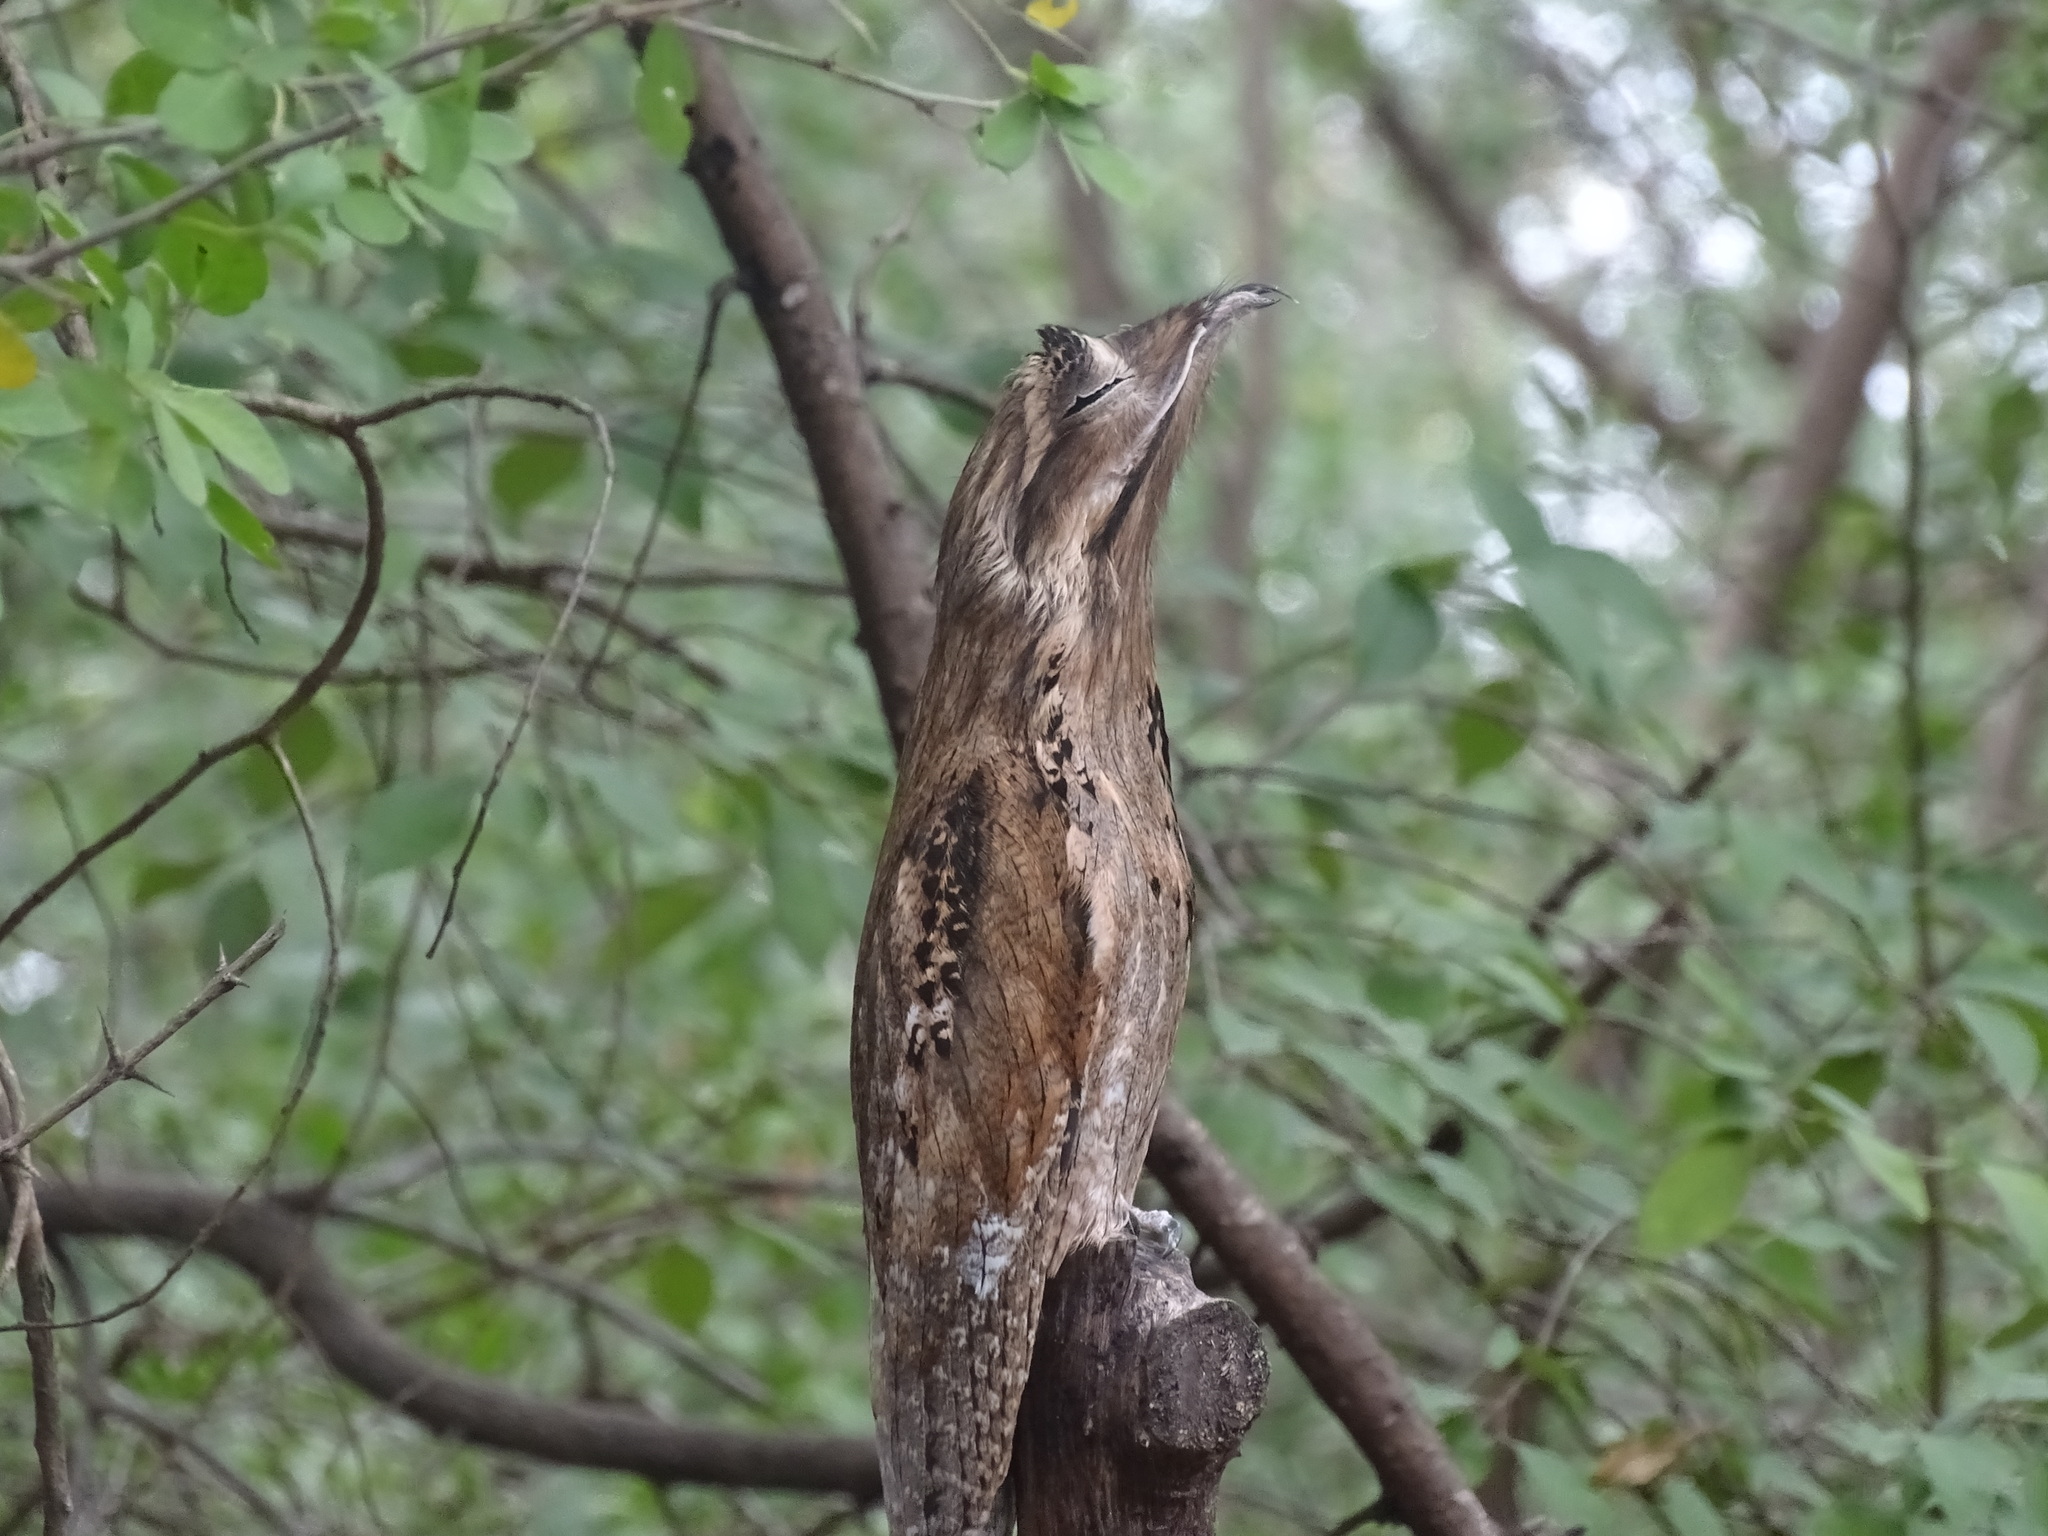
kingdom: Animalia
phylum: Chordata
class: Aves
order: Nyctibiiformes
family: Nyctibiidae
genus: Nyctibius
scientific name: Nyctibius jamaicensis
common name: Northern potoo
